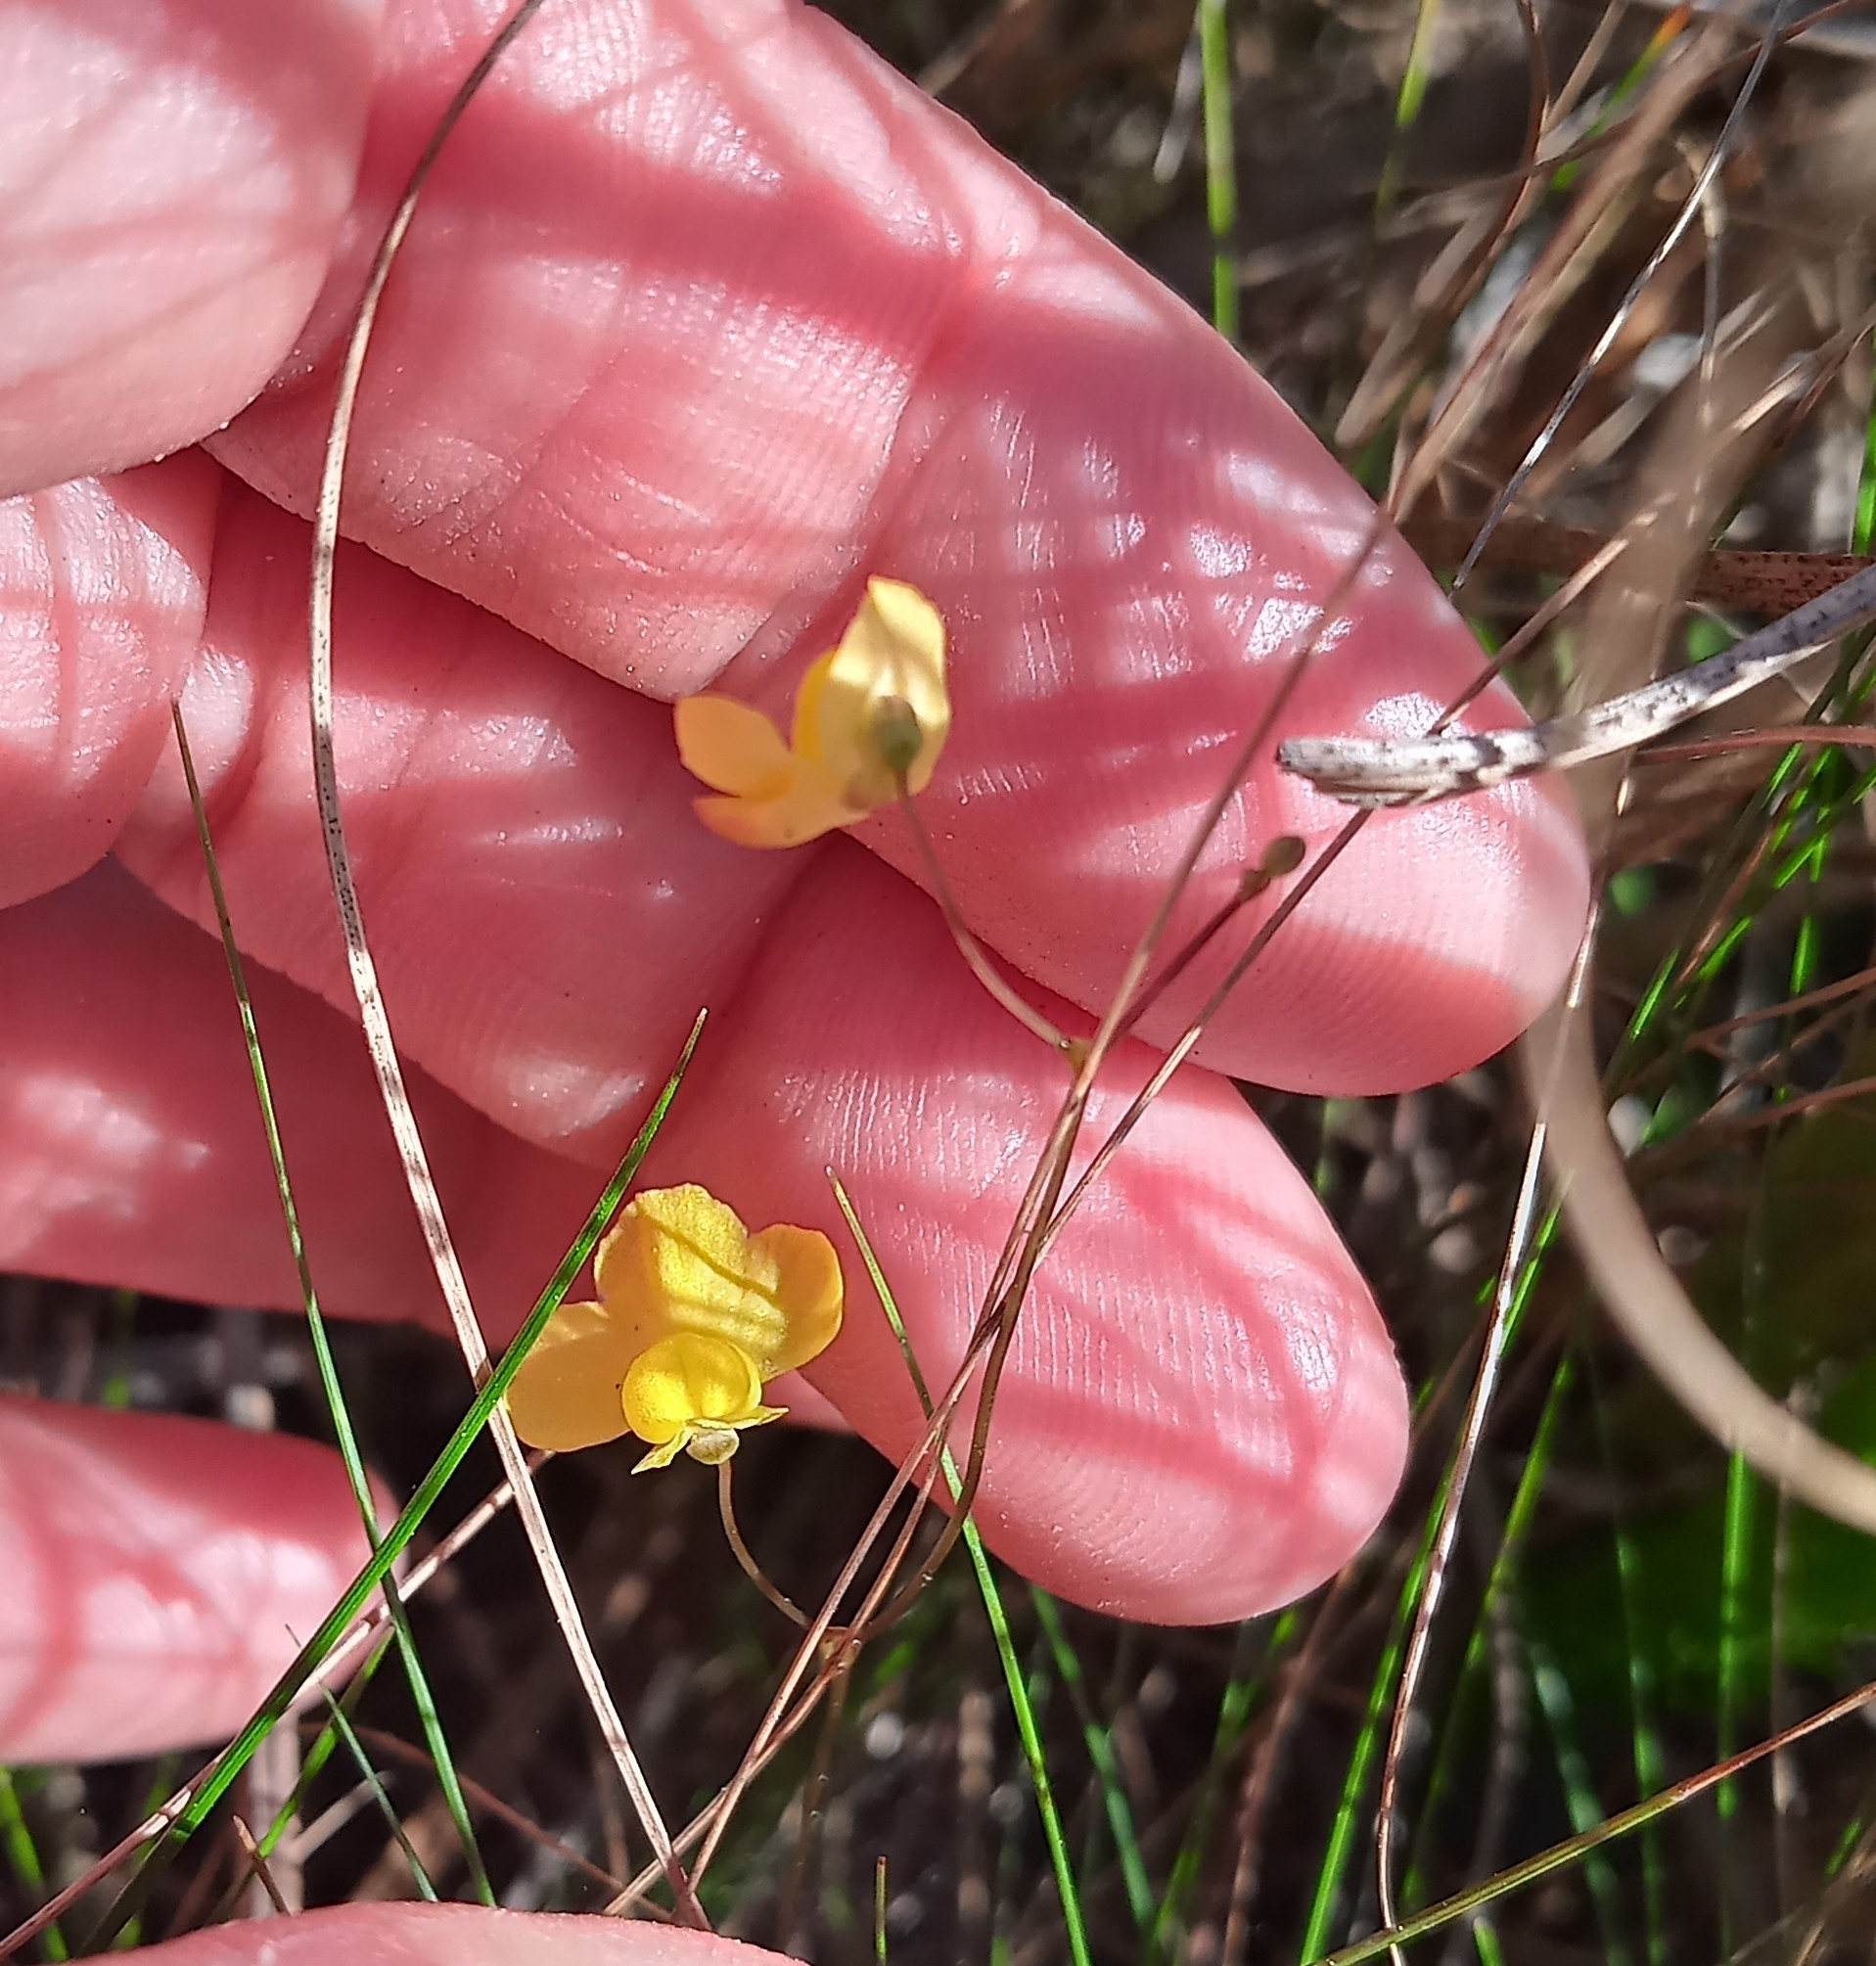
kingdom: Plantae
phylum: Tracheophyta
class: Magnoliopsida
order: Lamiales
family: Lentibulariaceae
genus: Utricularia
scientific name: Utricularia subulata
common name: Tiny bladderwort
